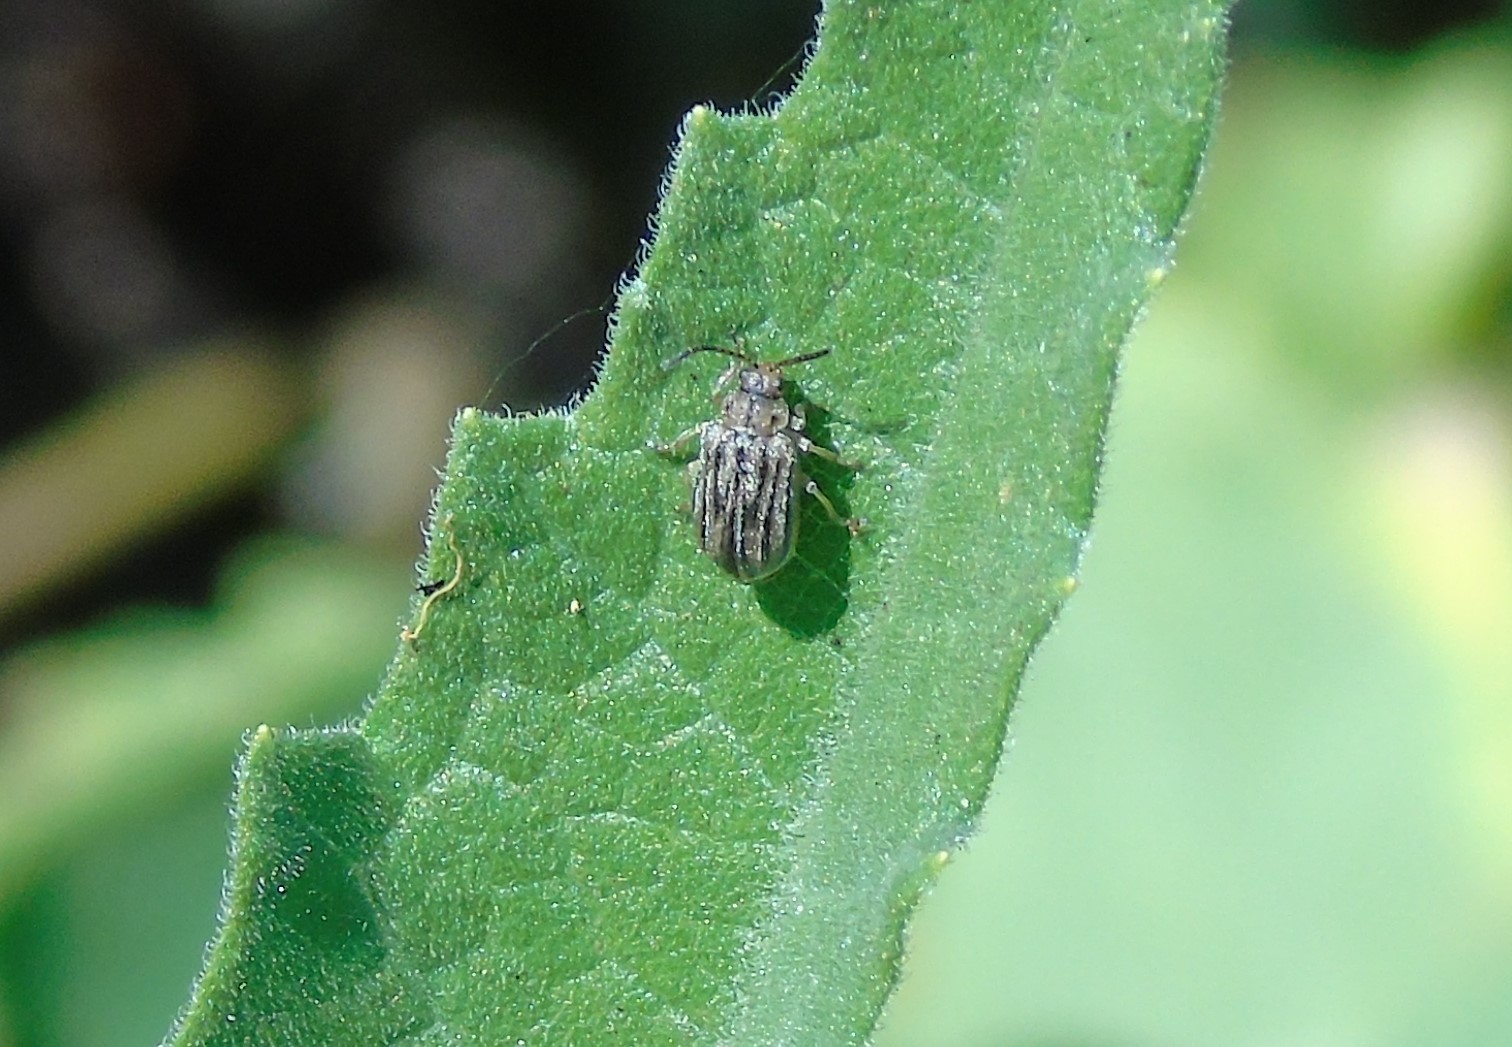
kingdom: Animalia
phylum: Arthropoda
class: Insecta
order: Coleoptera
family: Chrysomelidae
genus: Ophraella
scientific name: Ophraella
